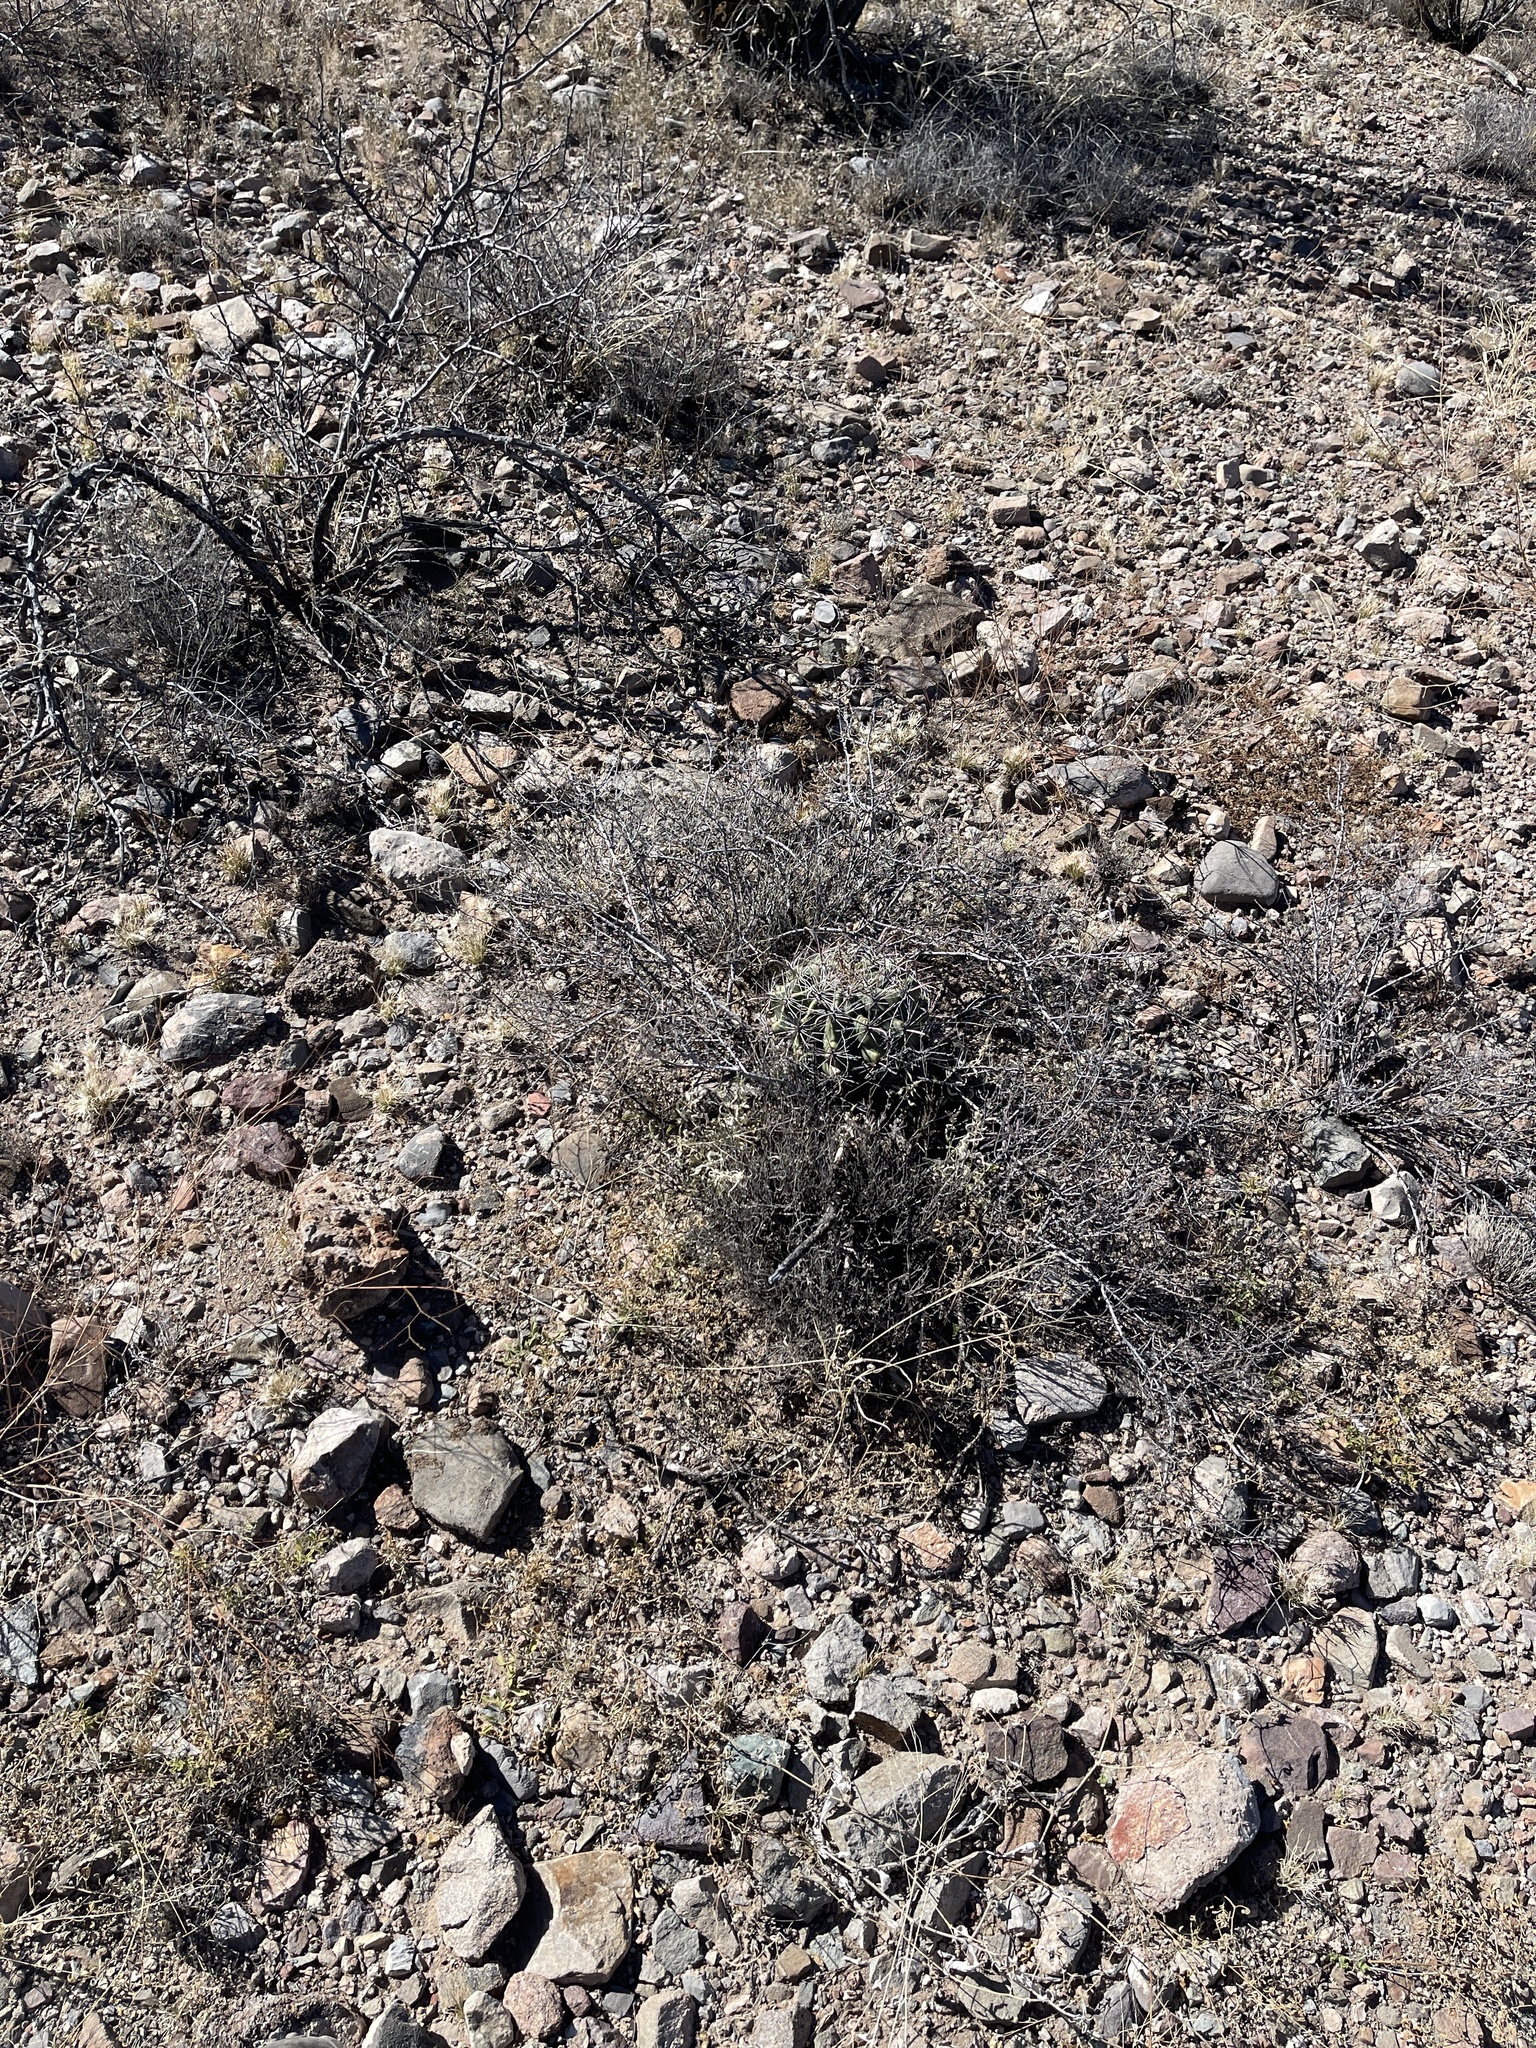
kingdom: Plantae
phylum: Tracheophyta
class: Magnoliopsida
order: Caryophyllales
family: Cactaceae
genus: Ferocactus
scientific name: Ferocactus wislizeni
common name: Candy barrel cactus
